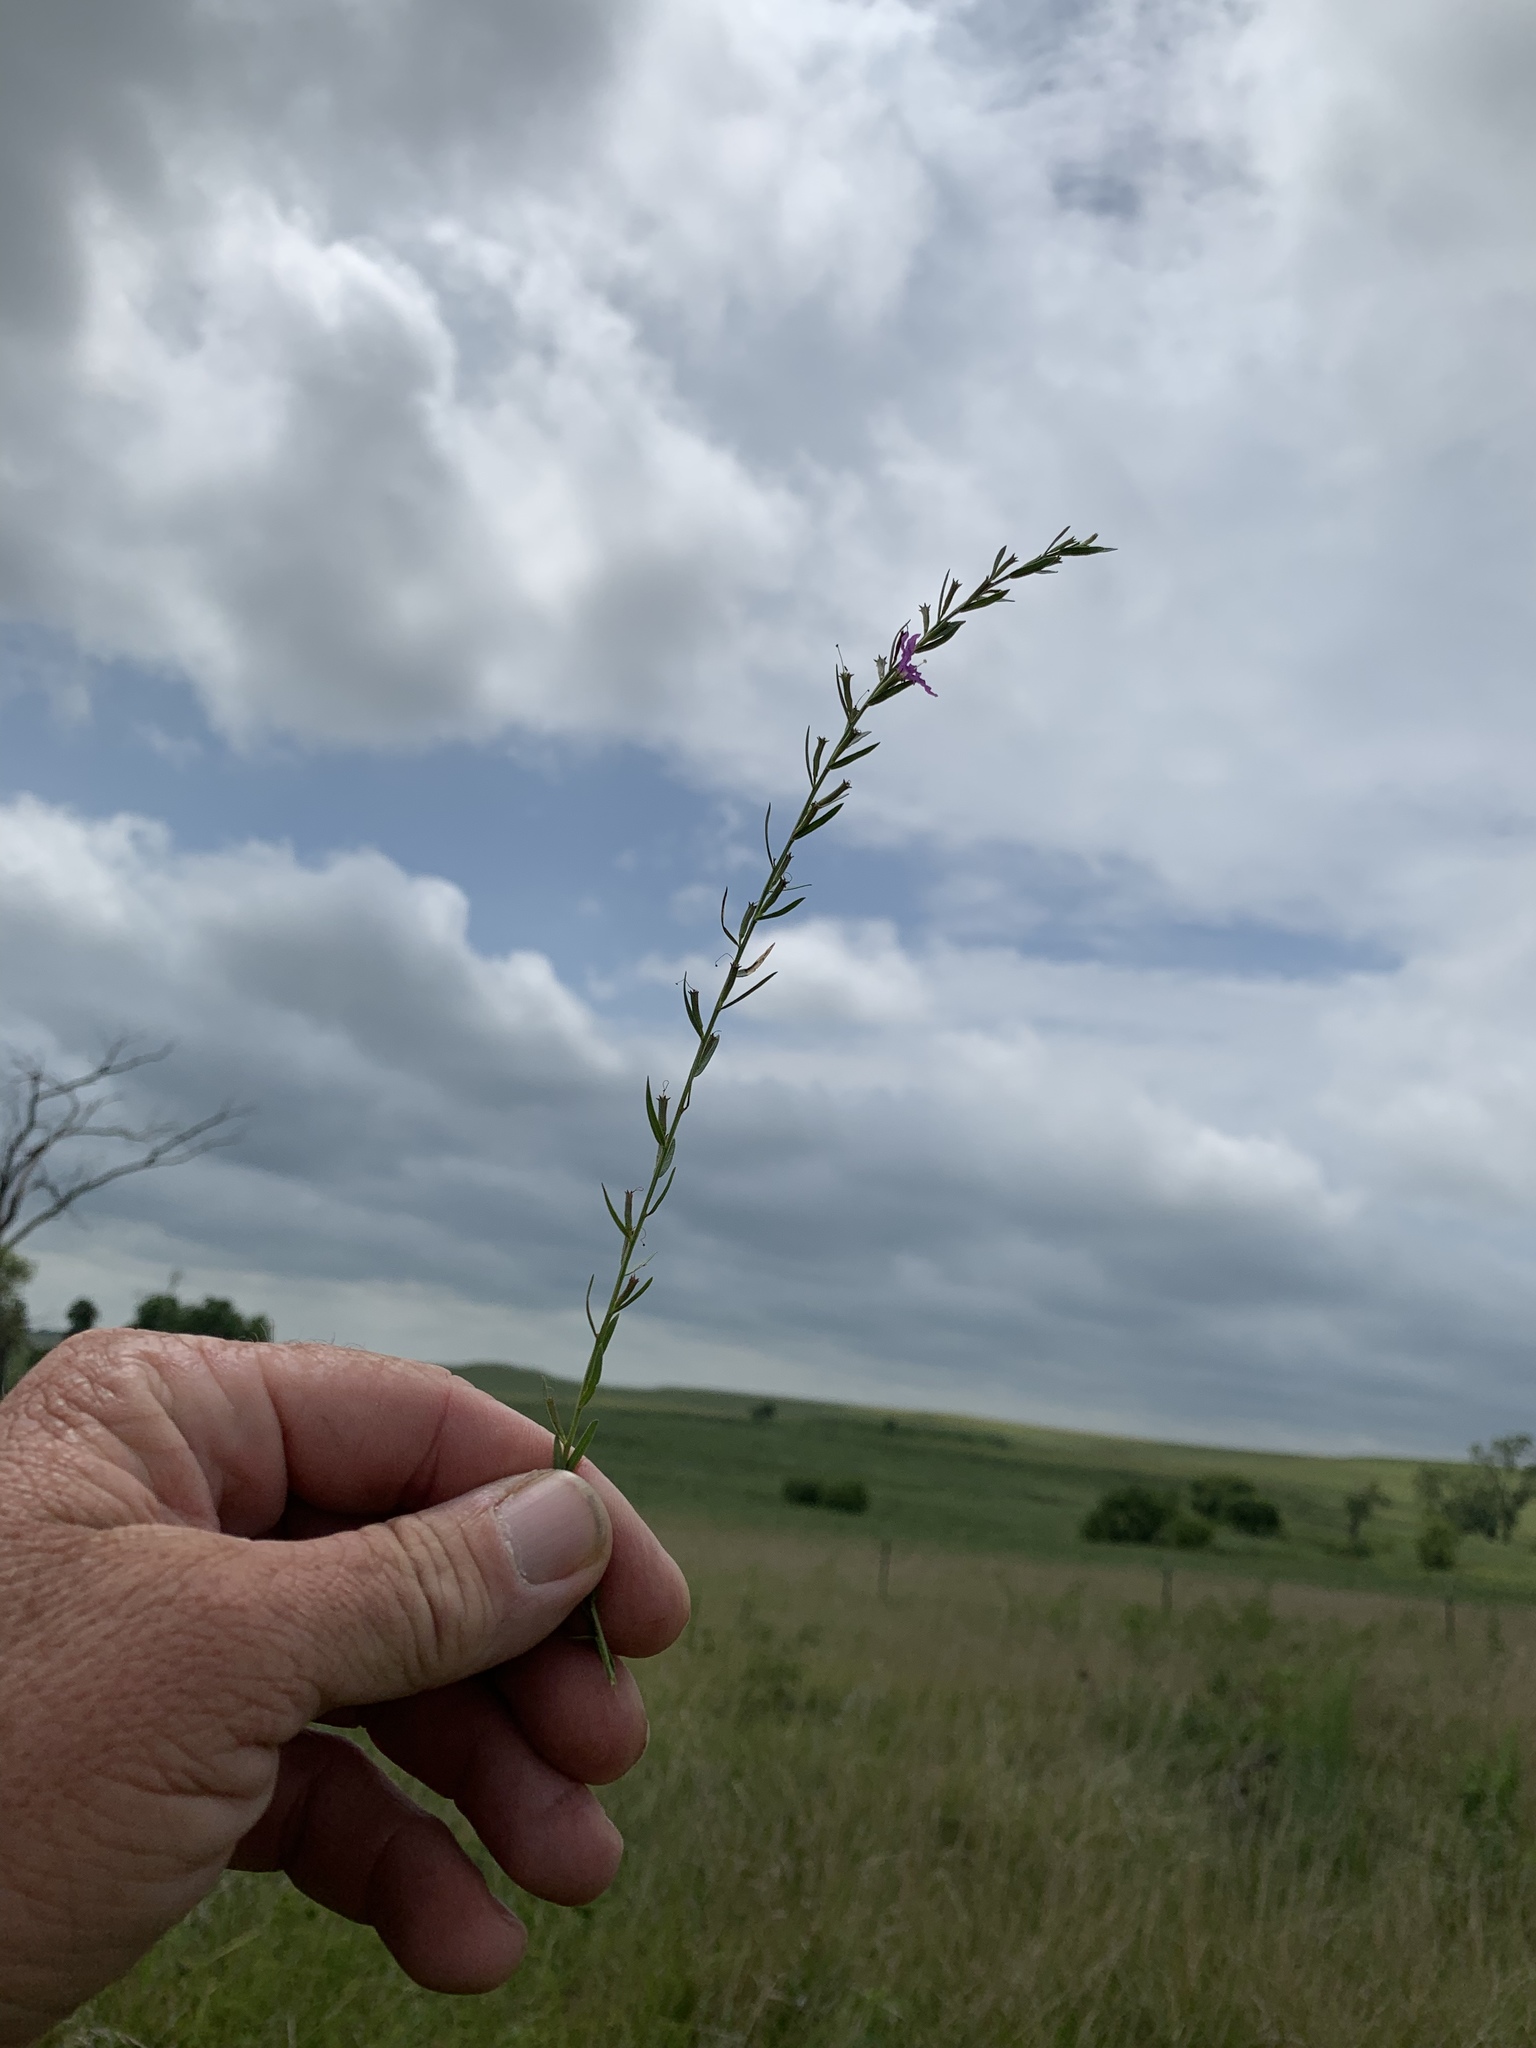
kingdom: Plantae
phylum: Tracheophyta
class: Magnoliopsida
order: Myrtales
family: Lythraceae
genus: Lythrum
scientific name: Lythrum alatum
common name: Winged loosestrife
